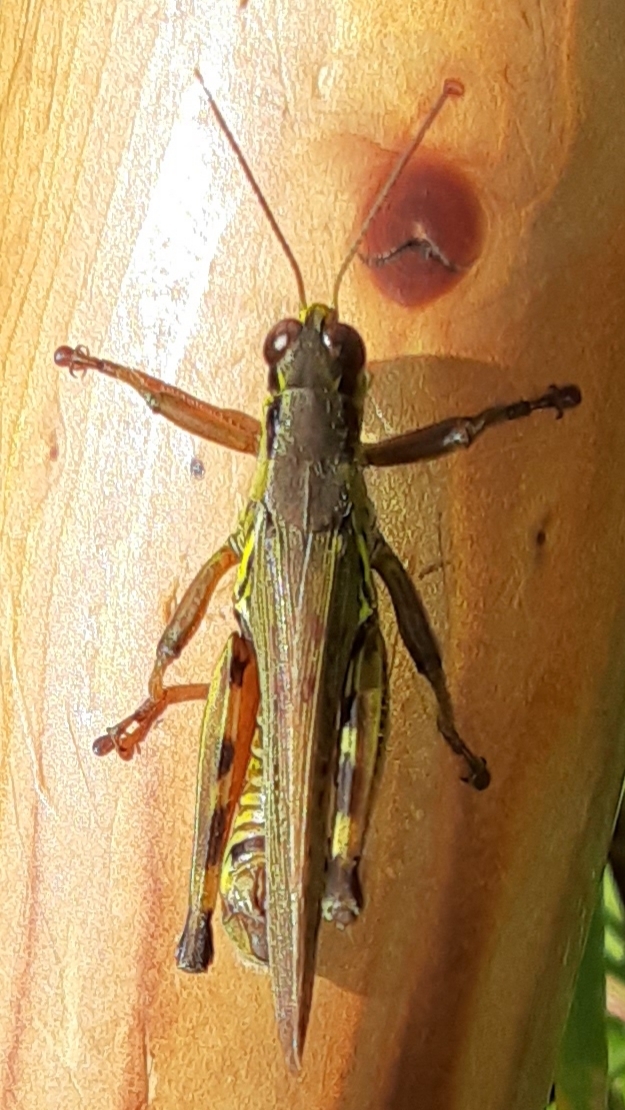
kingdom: Animalia
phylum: Arthropoda
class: Insecta
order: Orthoptera
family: Acrididae
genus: Melanoplus
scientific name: Melanoplus femurrubrum
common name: Red-legged grasshopper
